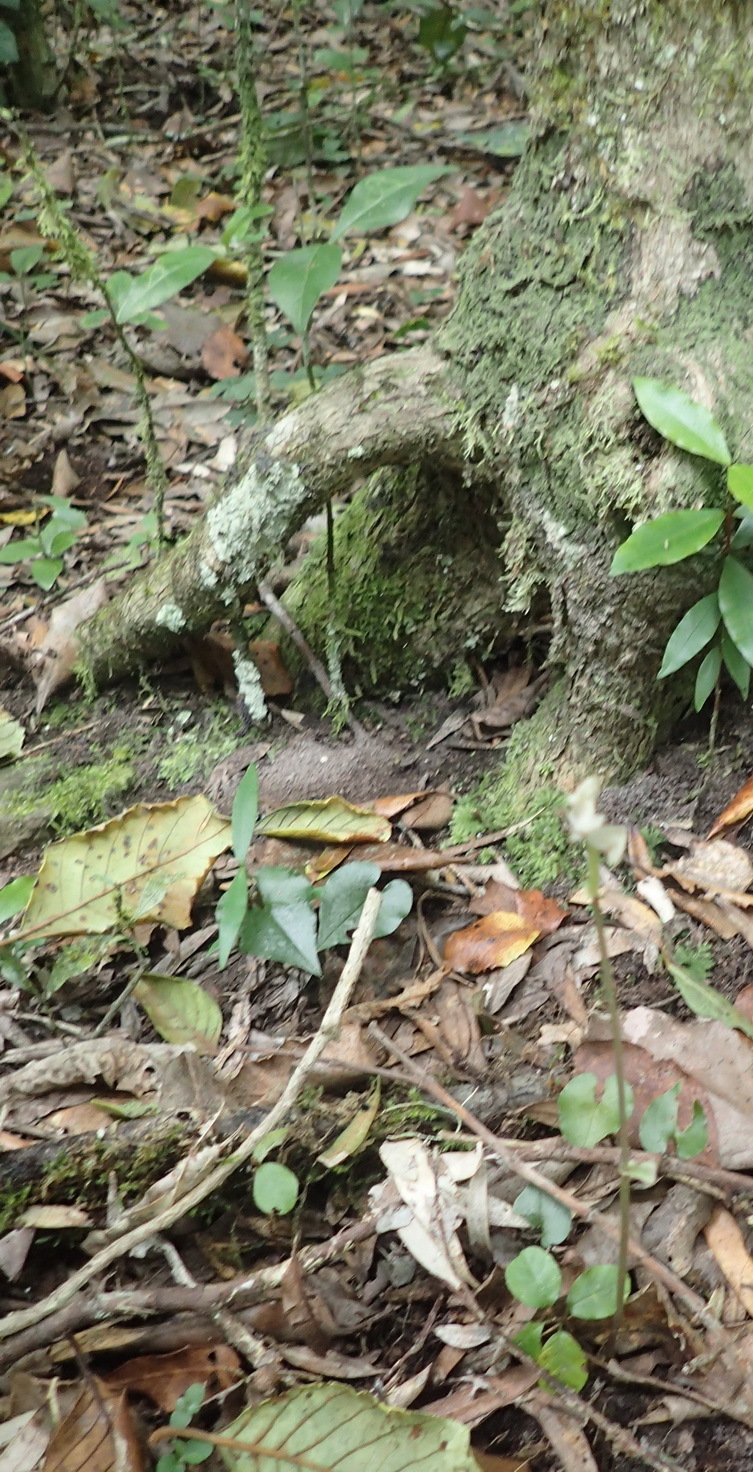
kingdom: Plantae
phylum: Tracheophyta
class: Liliopsida
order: Asparagales
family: Orchidaceae
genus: Disperis
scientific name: Disperis lindleyana
